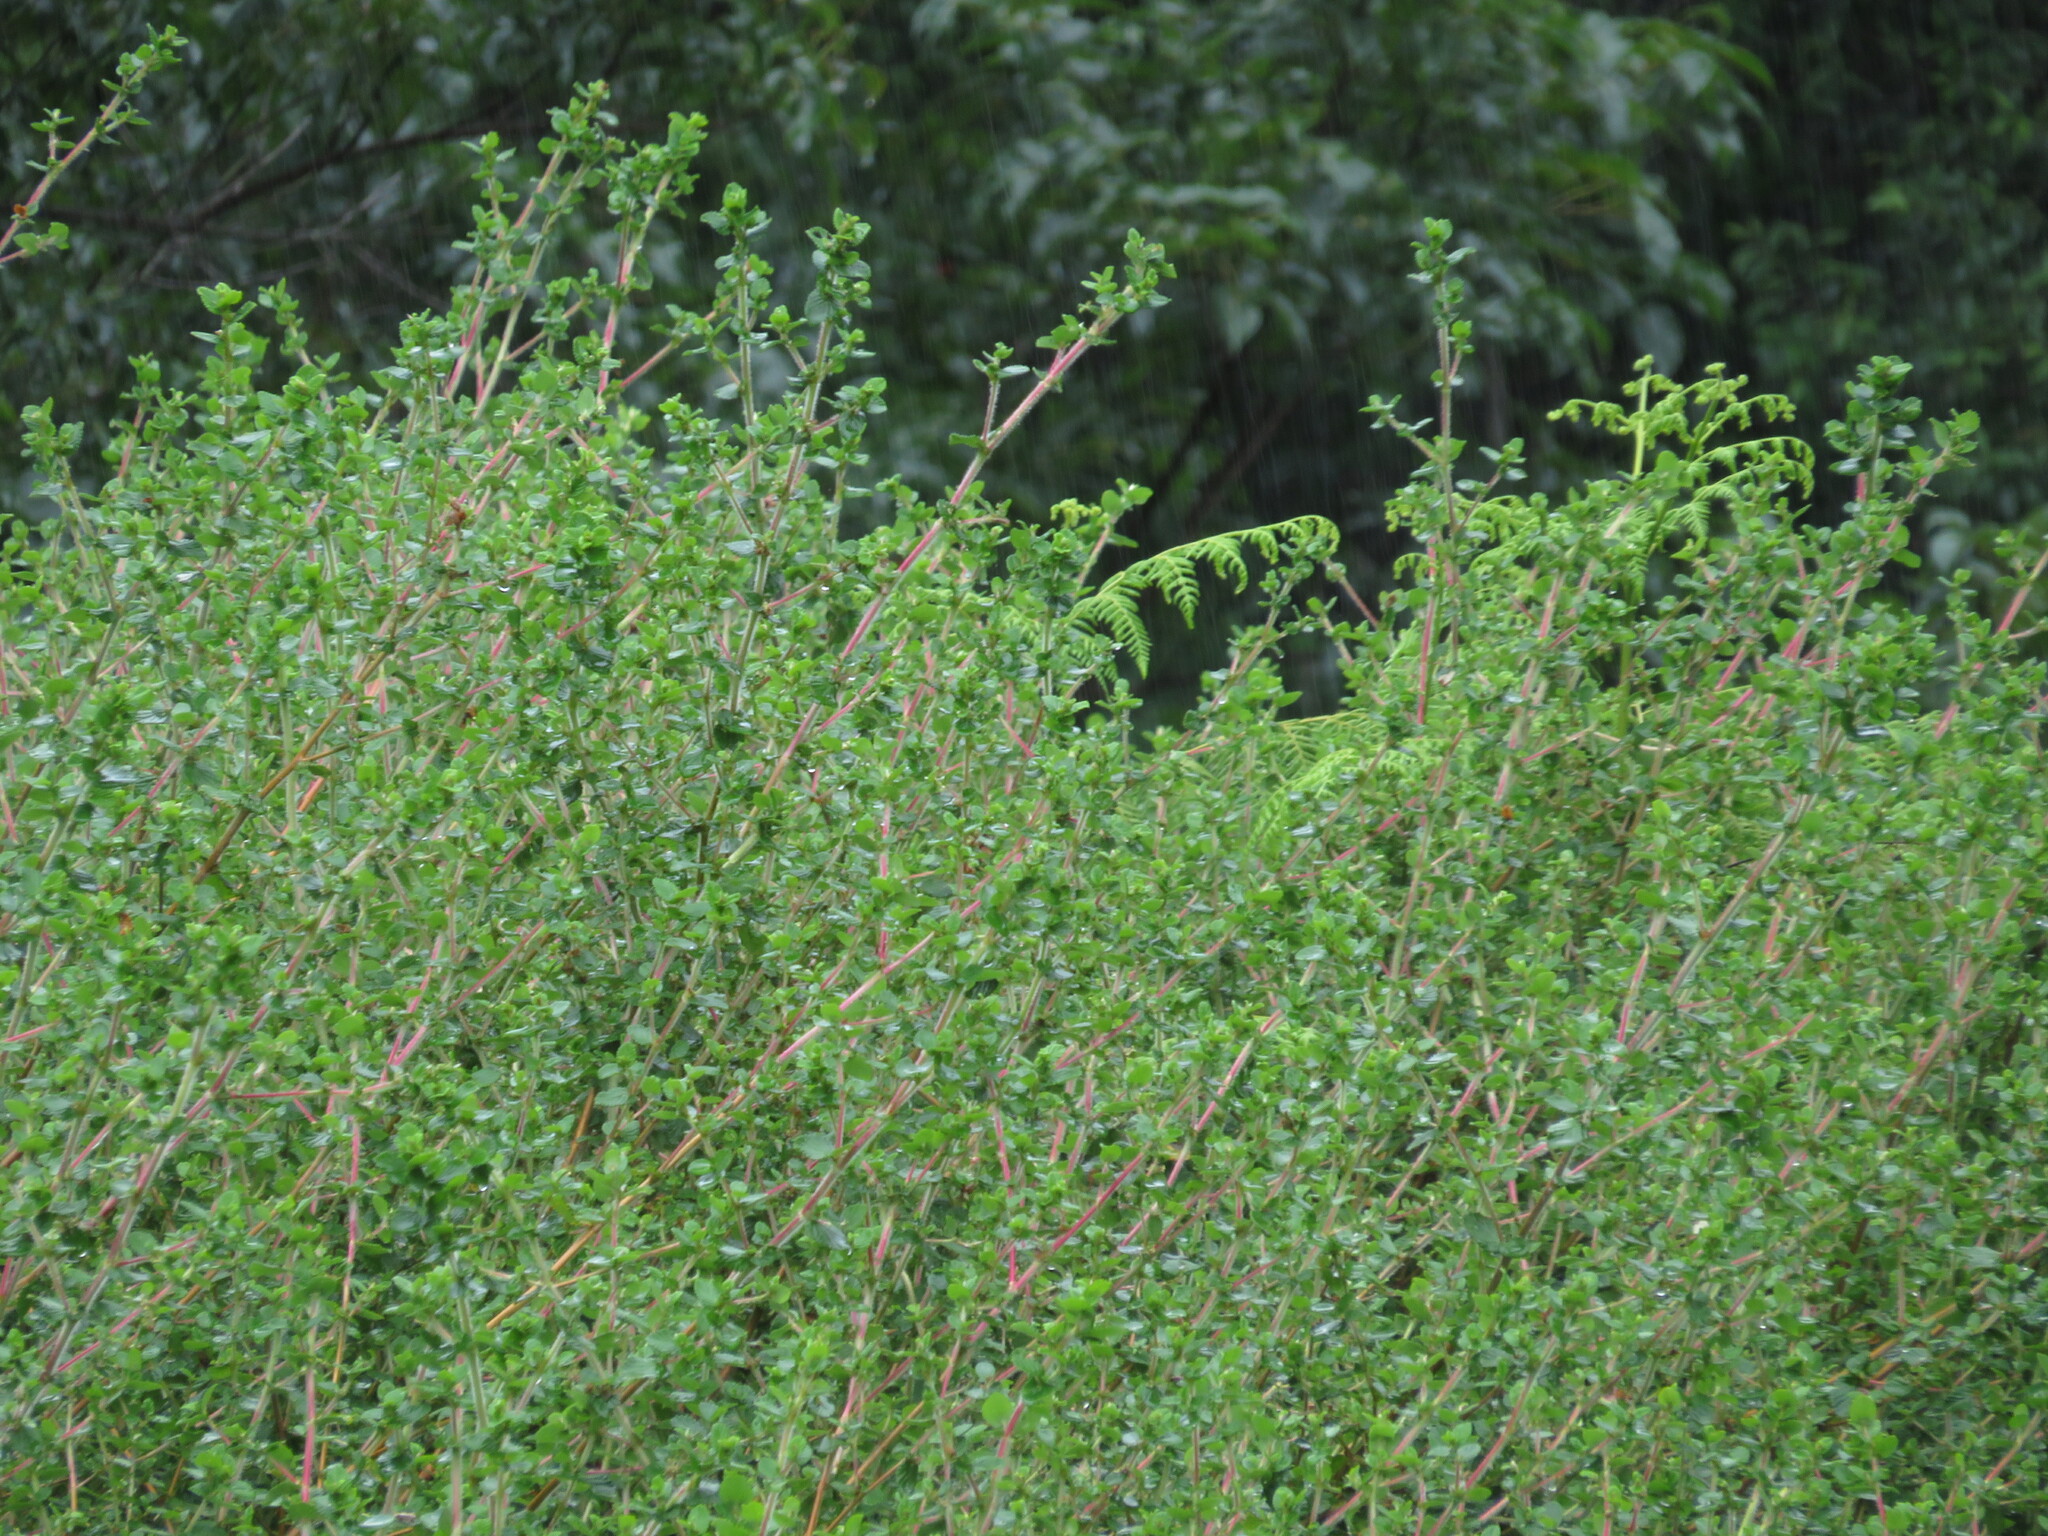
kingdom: Plantae
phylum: Tracheophyta
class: Magnoliopsida
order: Rosales
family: Rosaceae
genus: Cliffortia
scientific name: Cliffortia odorata
